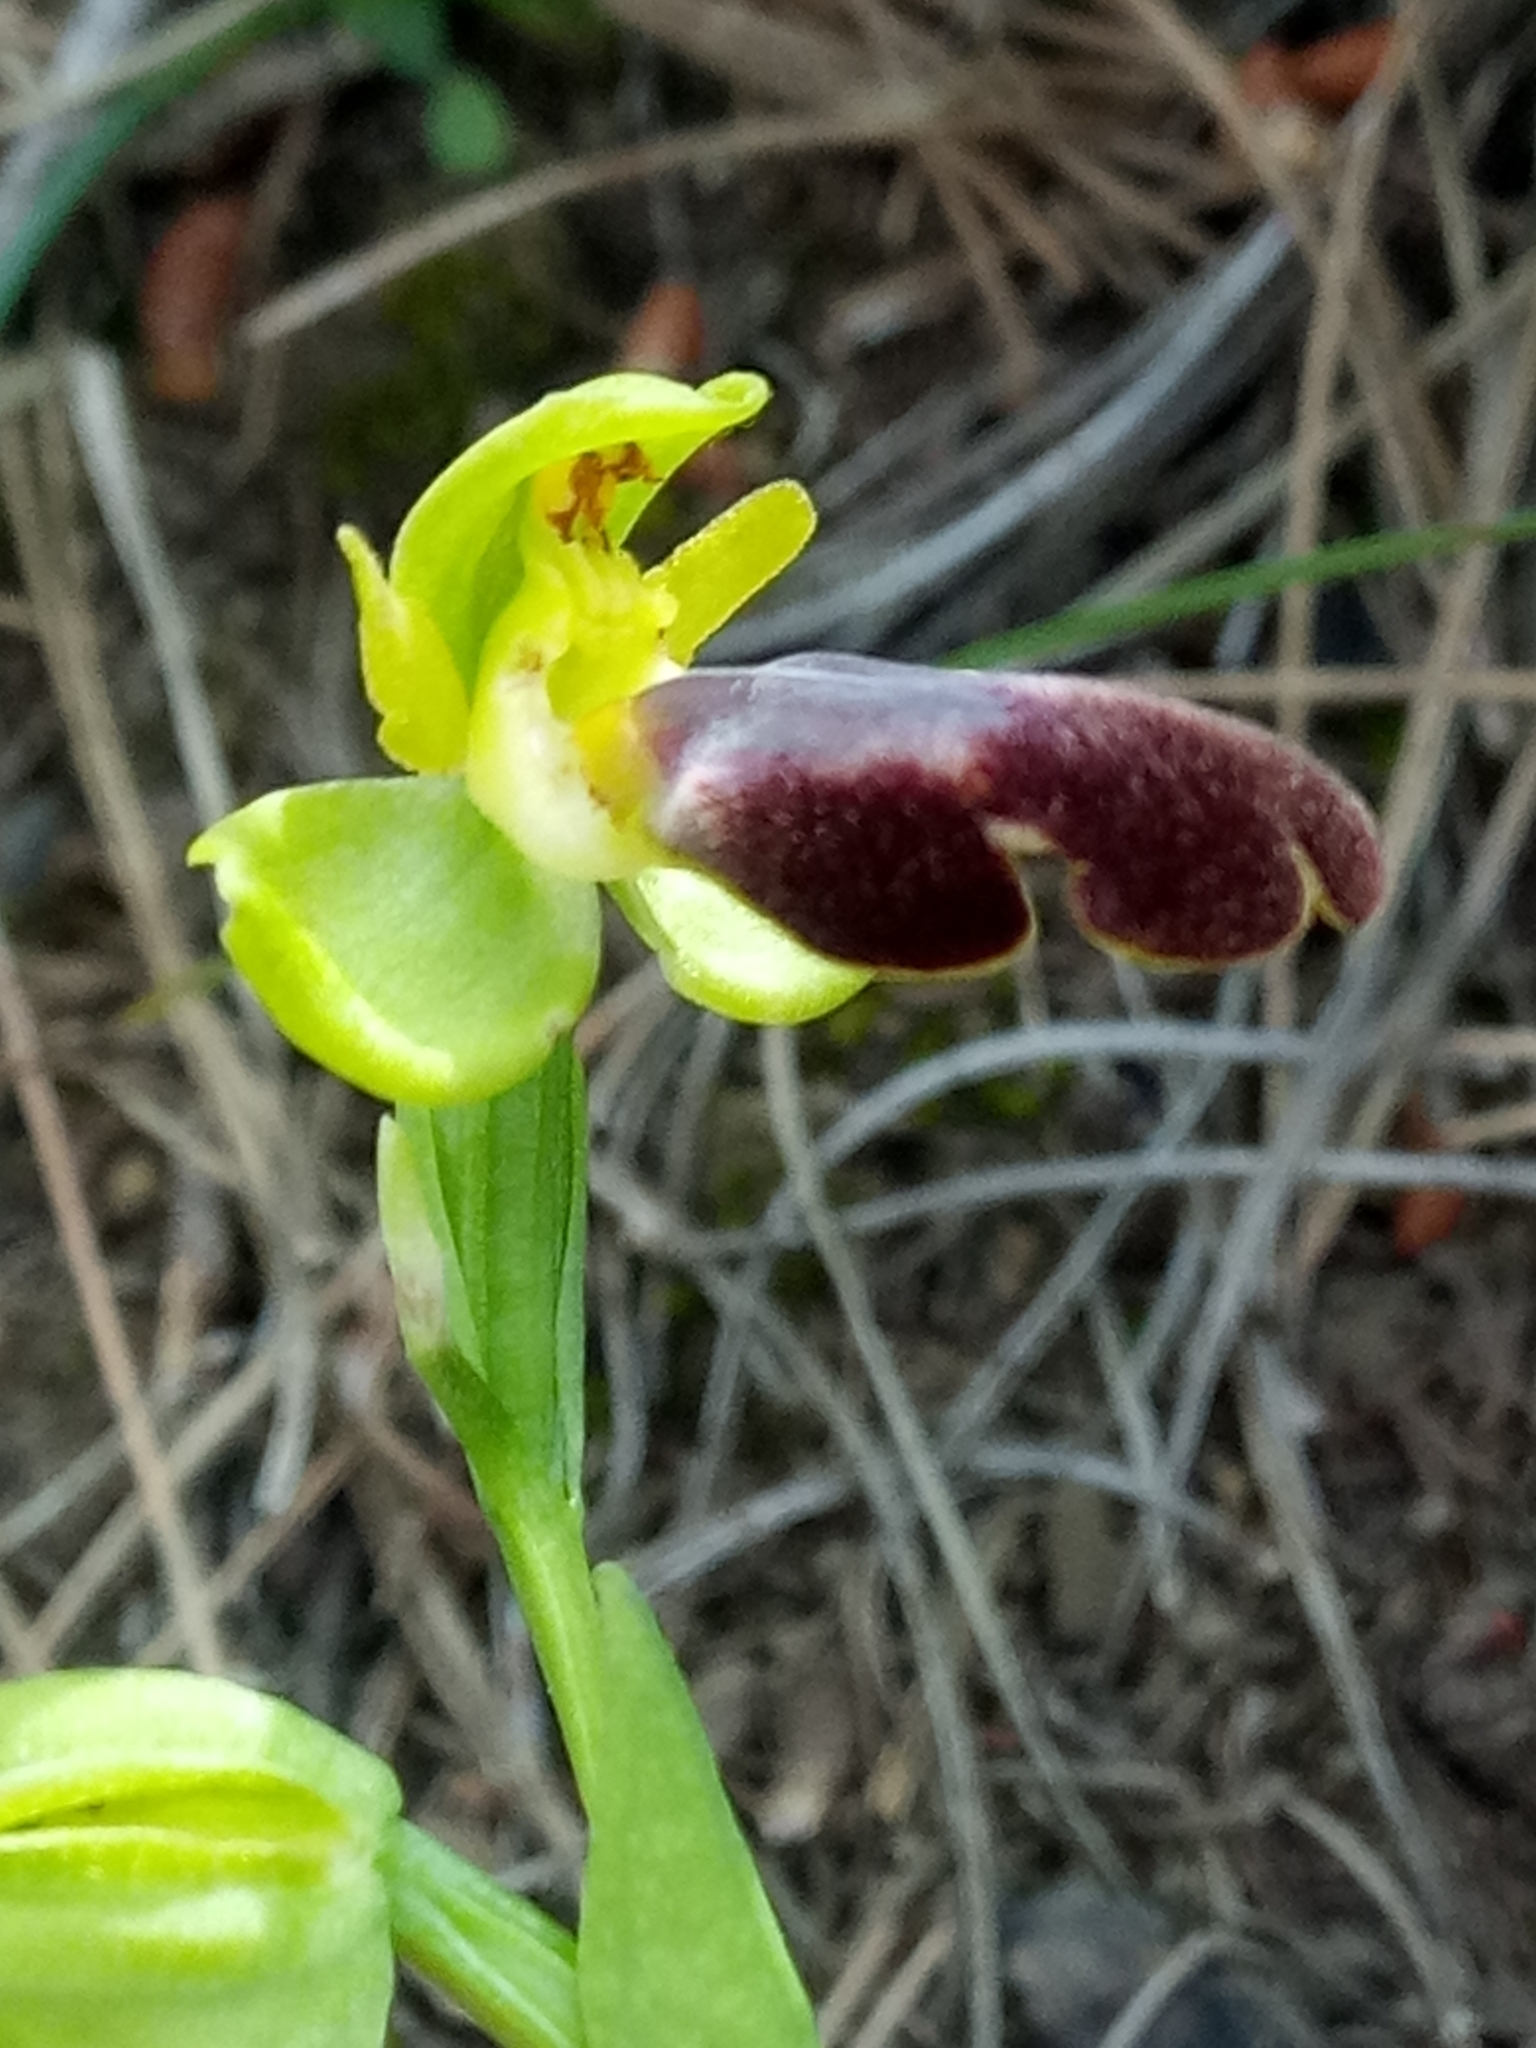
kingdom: Plantae
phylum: Tracheophyta
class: Liliopsida
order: Asparagales
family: Orchidaceae
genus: Ophrys
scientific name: Ophrys fusca
